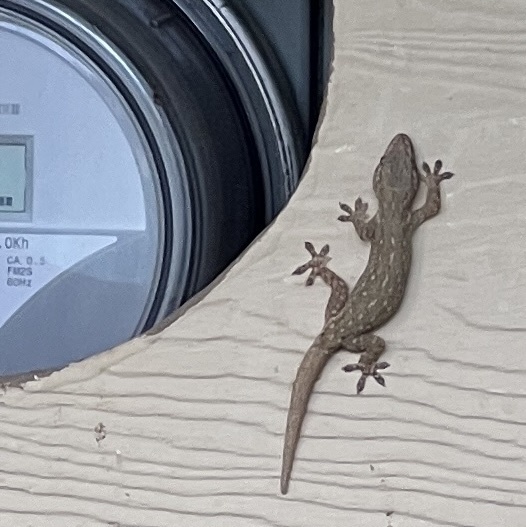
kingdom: Animalia
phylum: Chordata
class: Squamata
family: Gekkonidae
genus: Hemidactylus
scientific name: Hemidactylus frenatus
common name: Common house gecko
